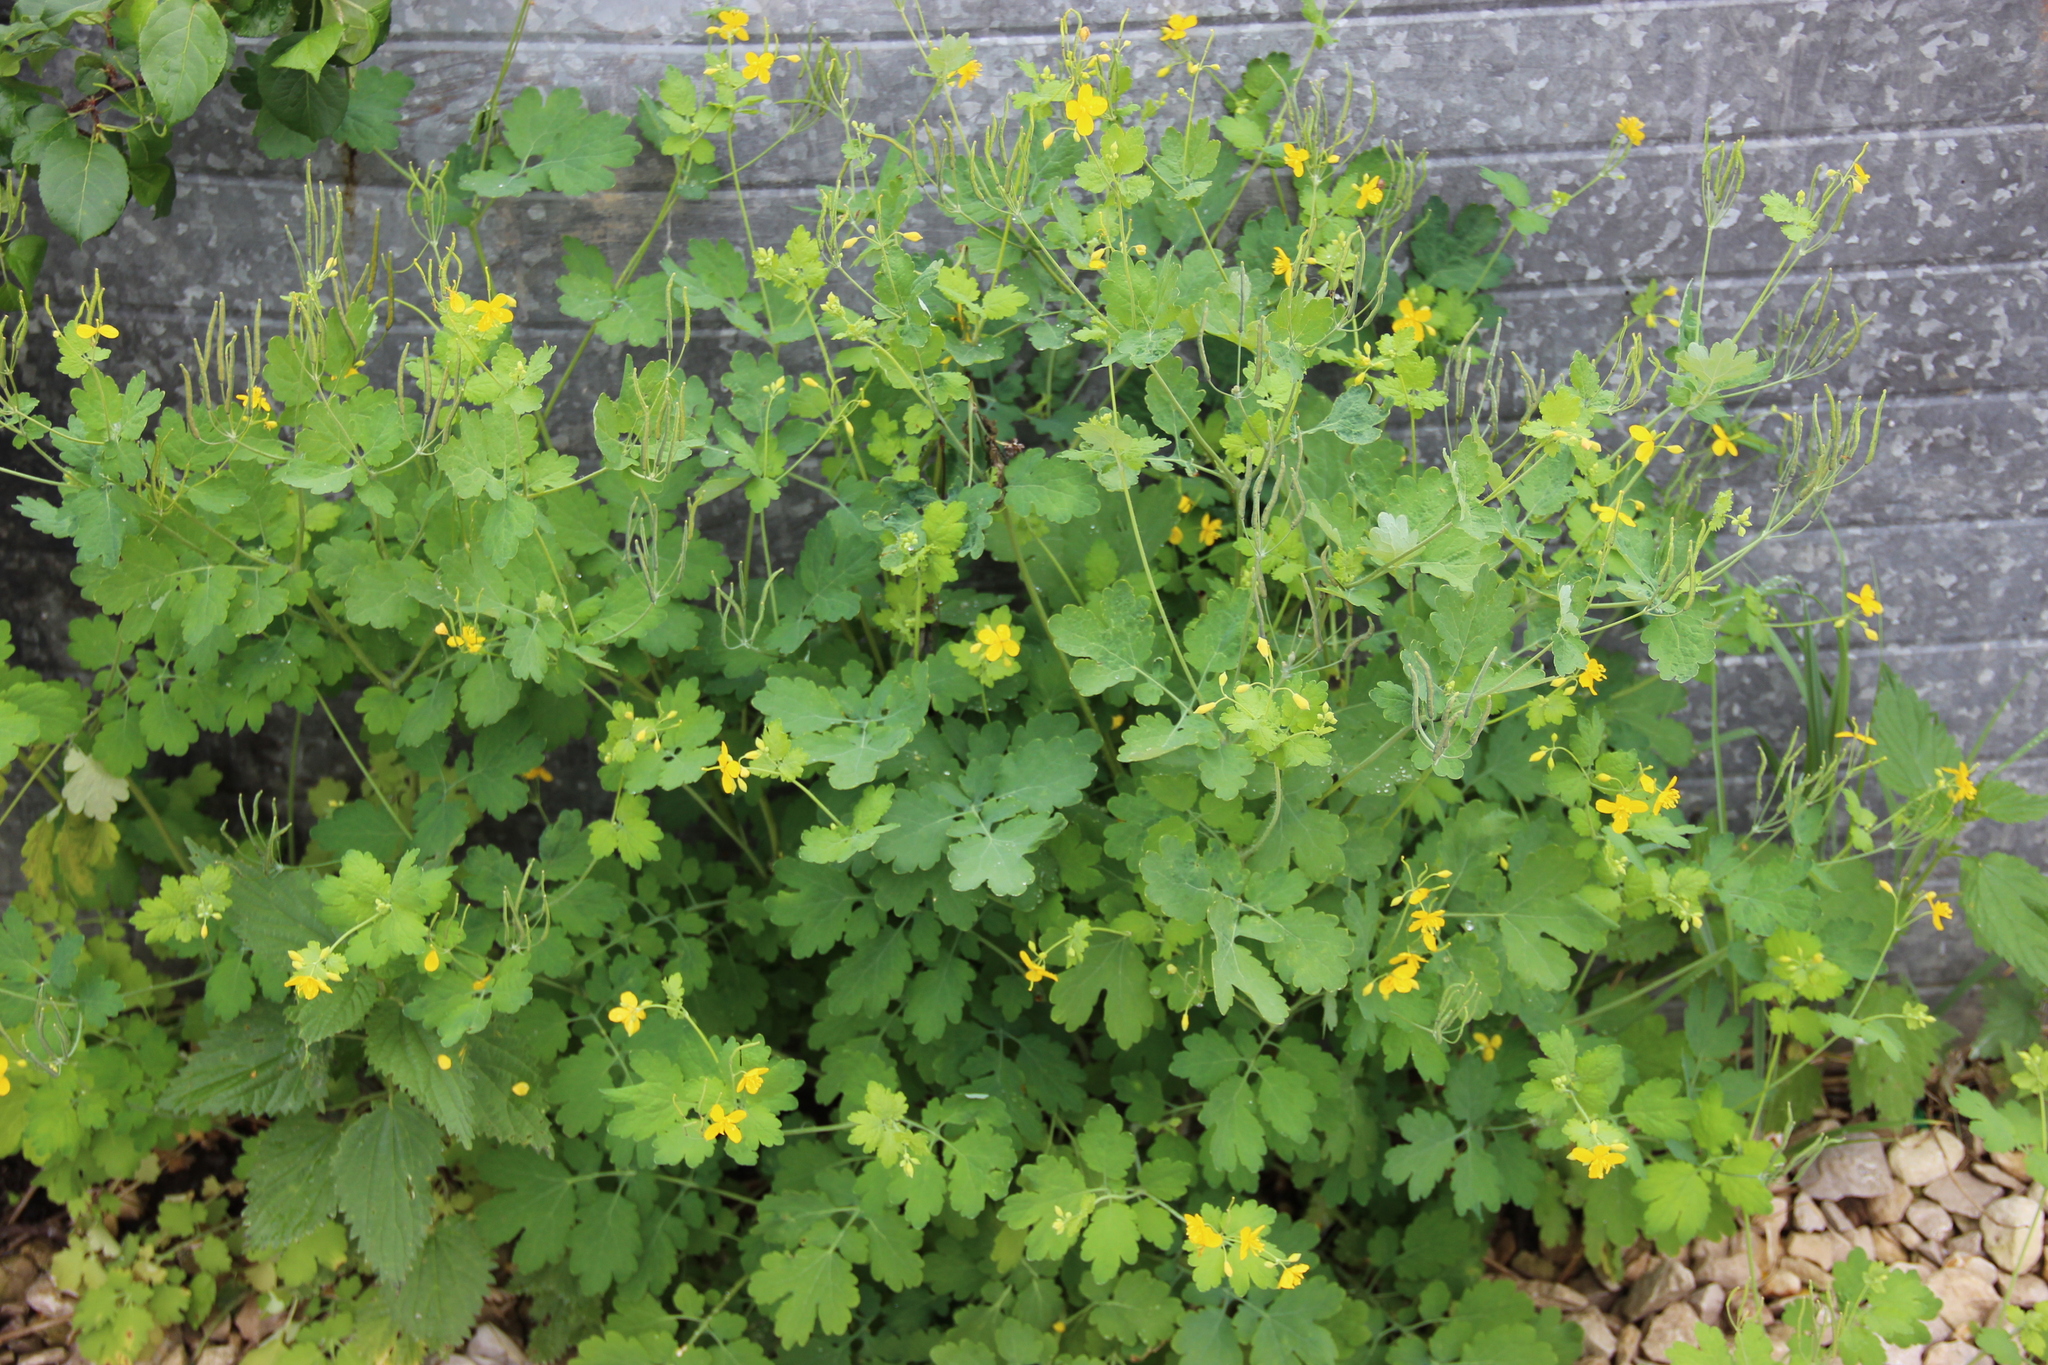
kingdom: Plantae
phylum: Tracheophyta
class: Magnoliopsida
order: Ranunculales
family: Papaveraceae
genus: Chelidonium
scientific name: Chelidonium majus
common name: Greater celandine
